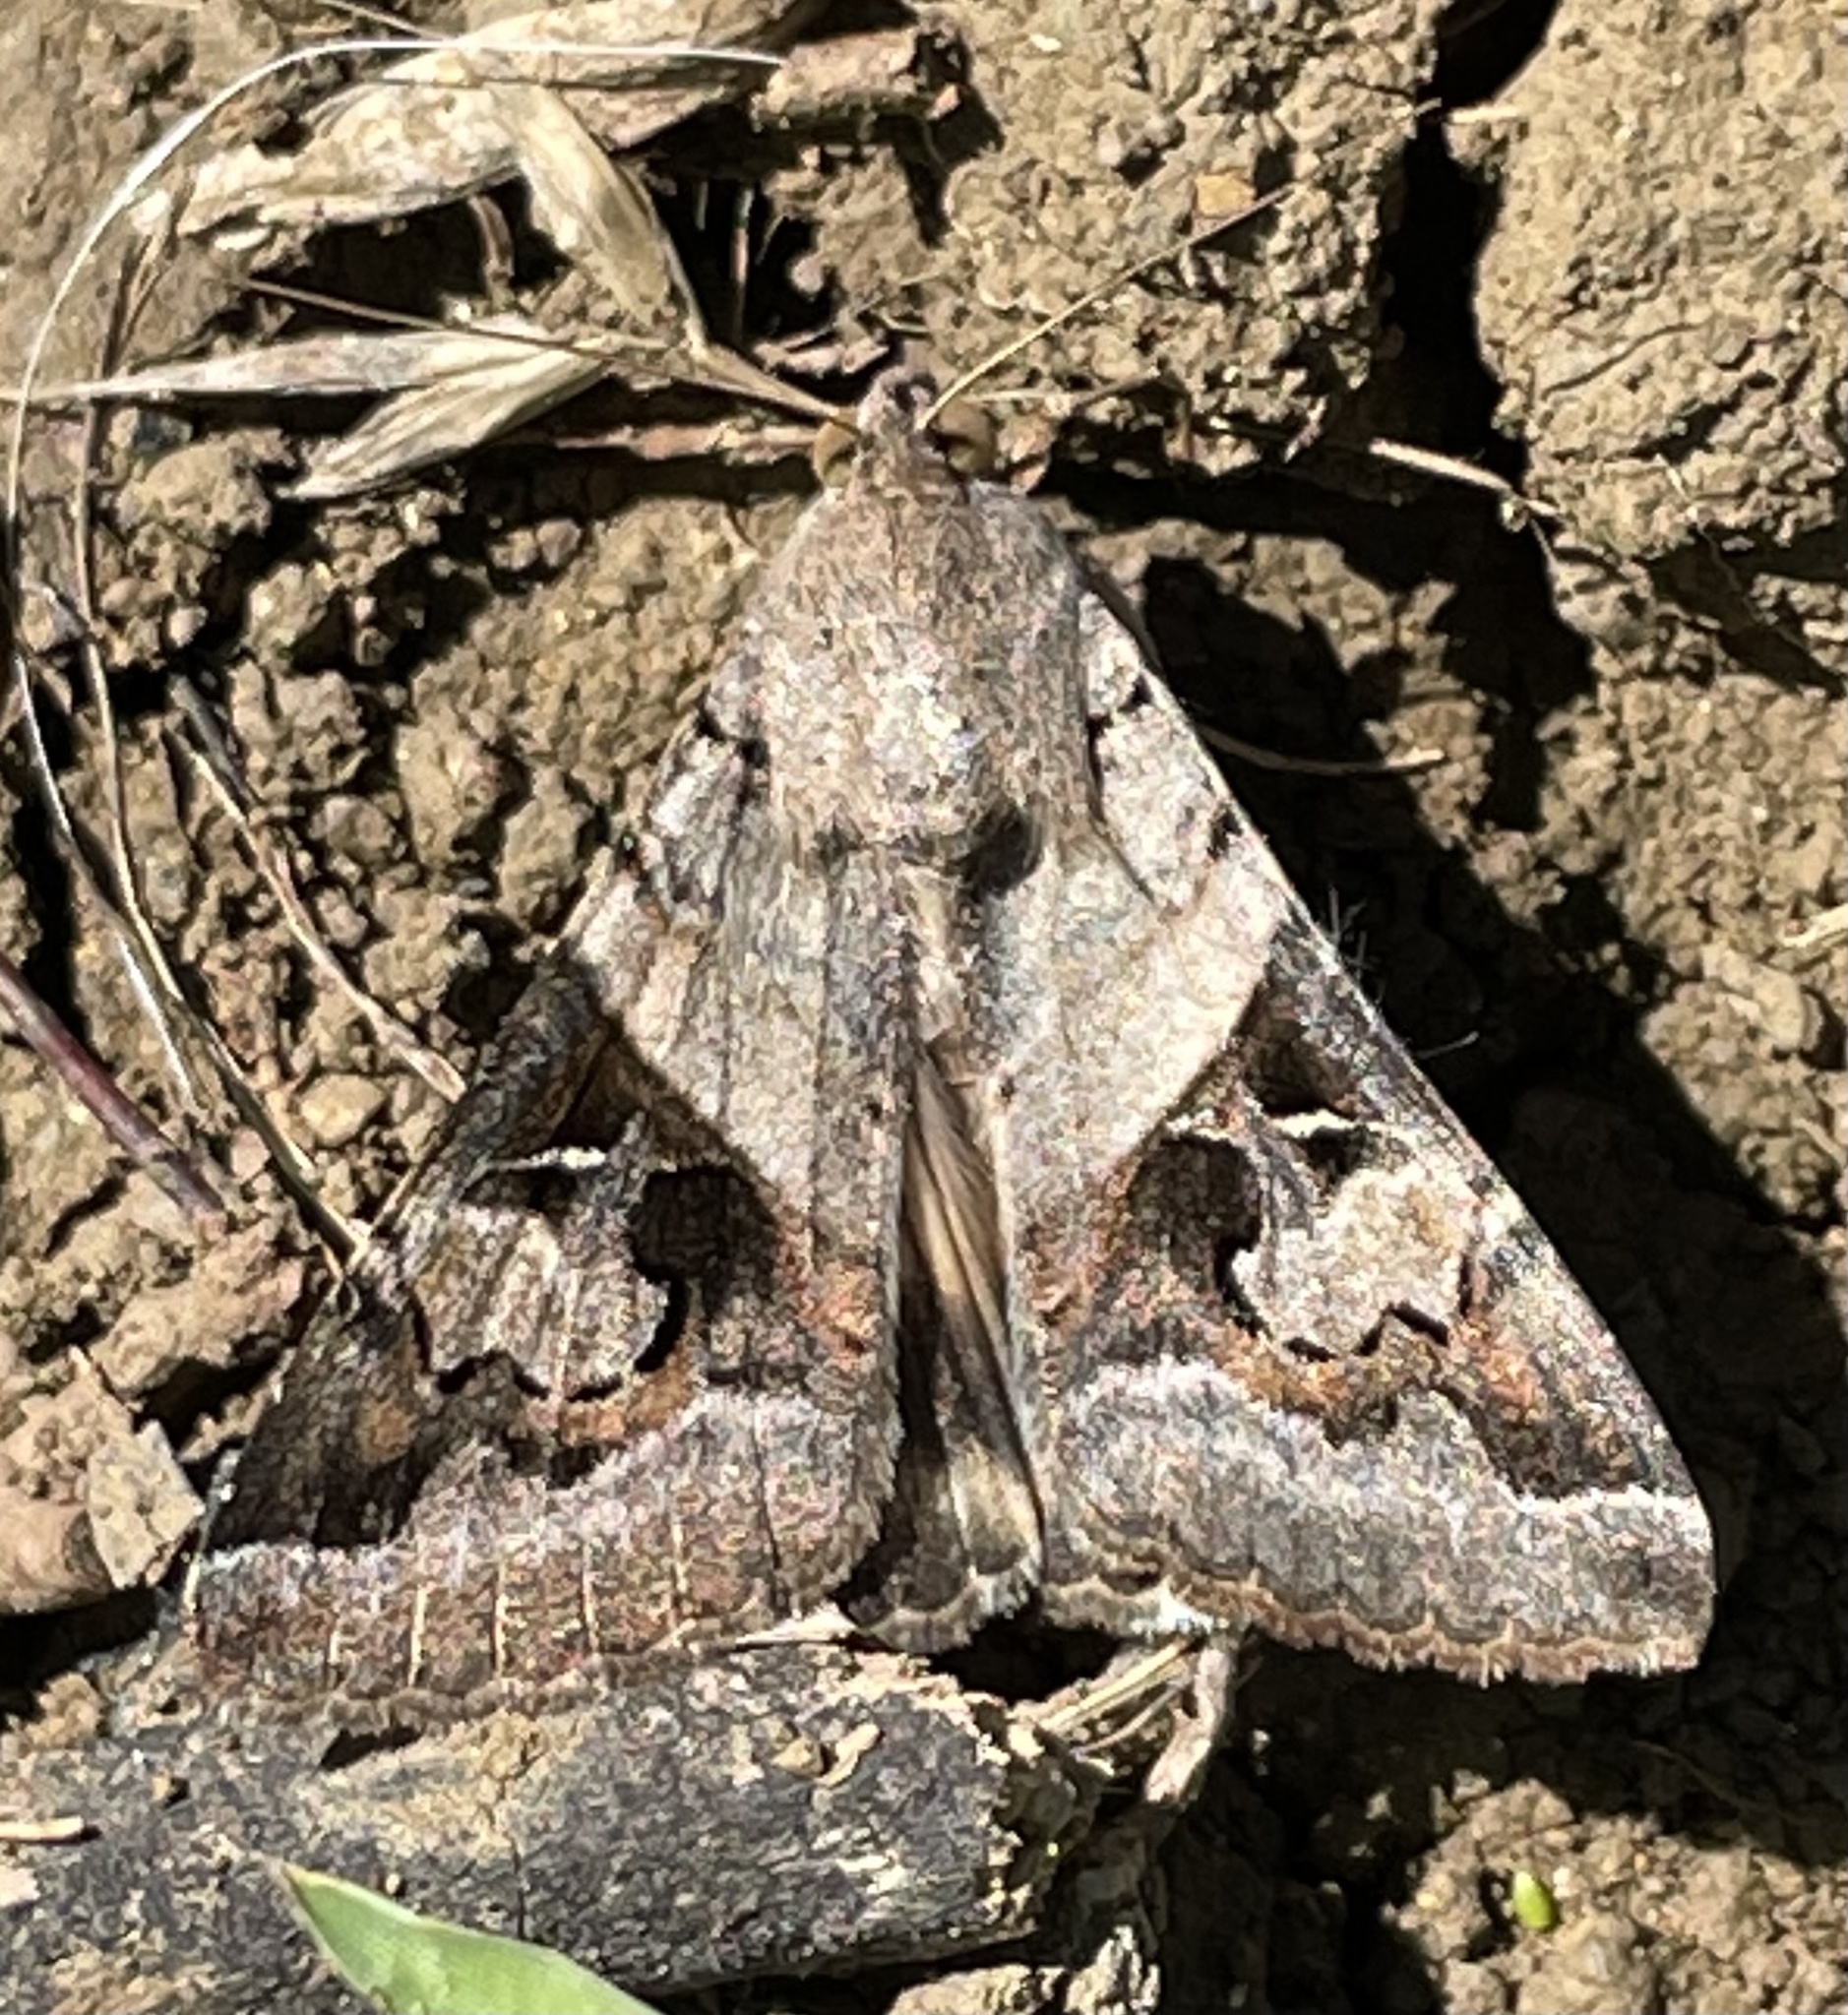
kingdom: Animalia
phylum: Arthropoda
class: Insecta
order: Lepidoptera
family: Erebidae
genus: Melipotis
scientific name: Melipotis indomita
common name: Moth
